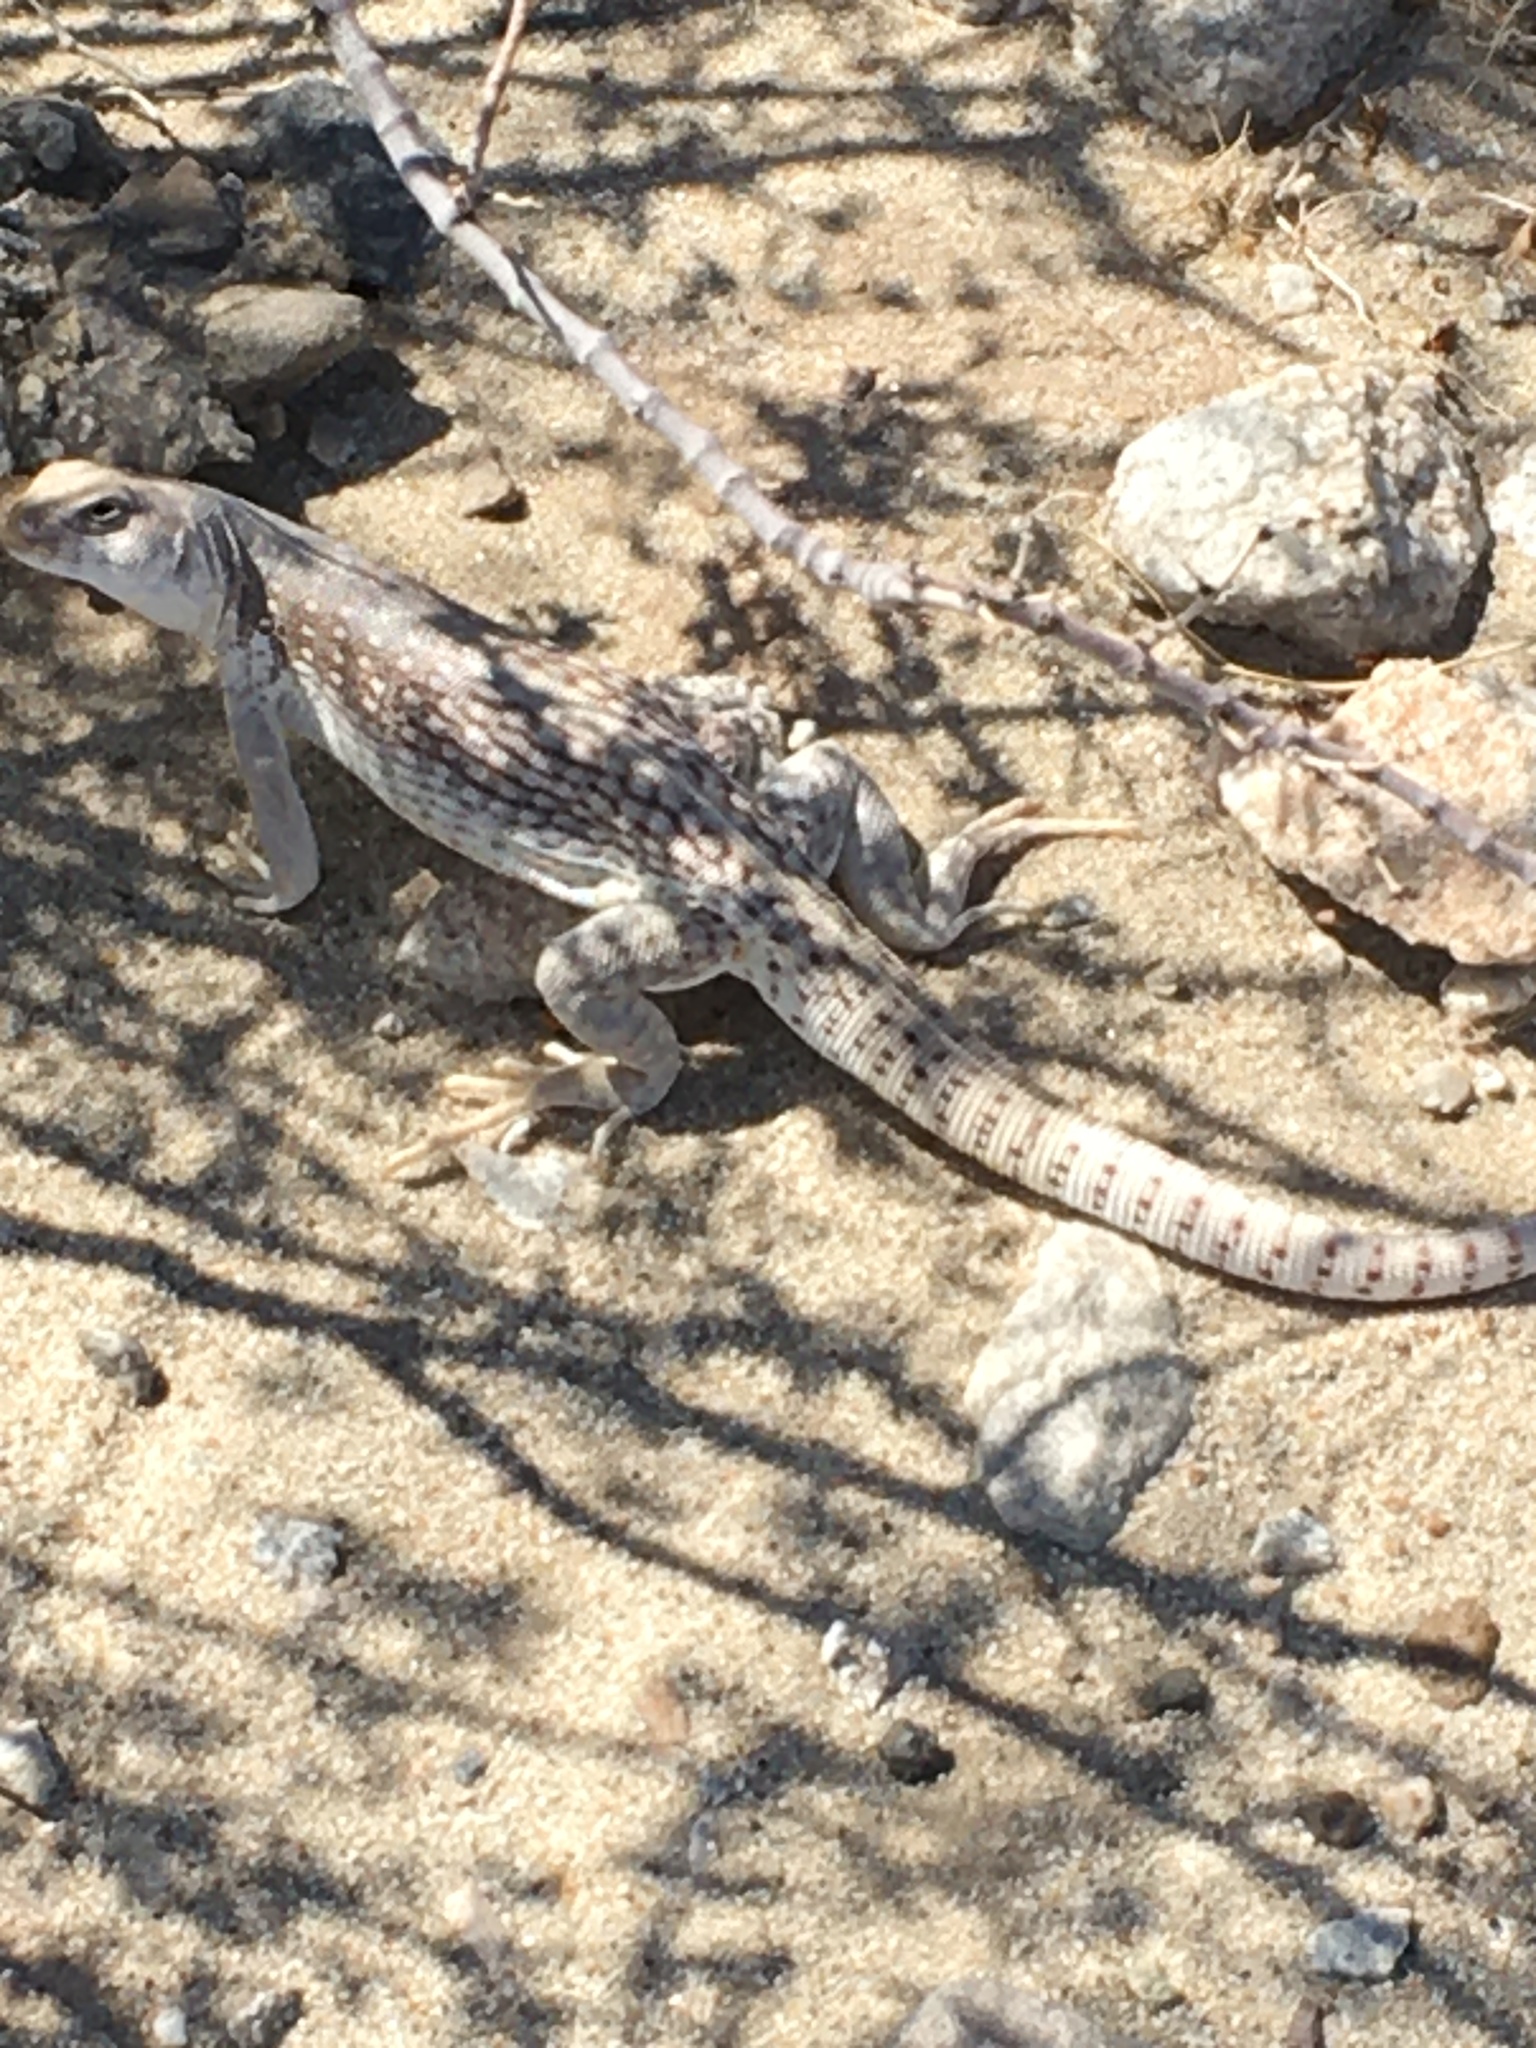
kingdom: Animalia
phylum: Chordata
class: Squamata
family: Iguanidae
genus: Dipsosaurus
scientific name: Dipsosaurus dorsalis
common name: Desert iguana
